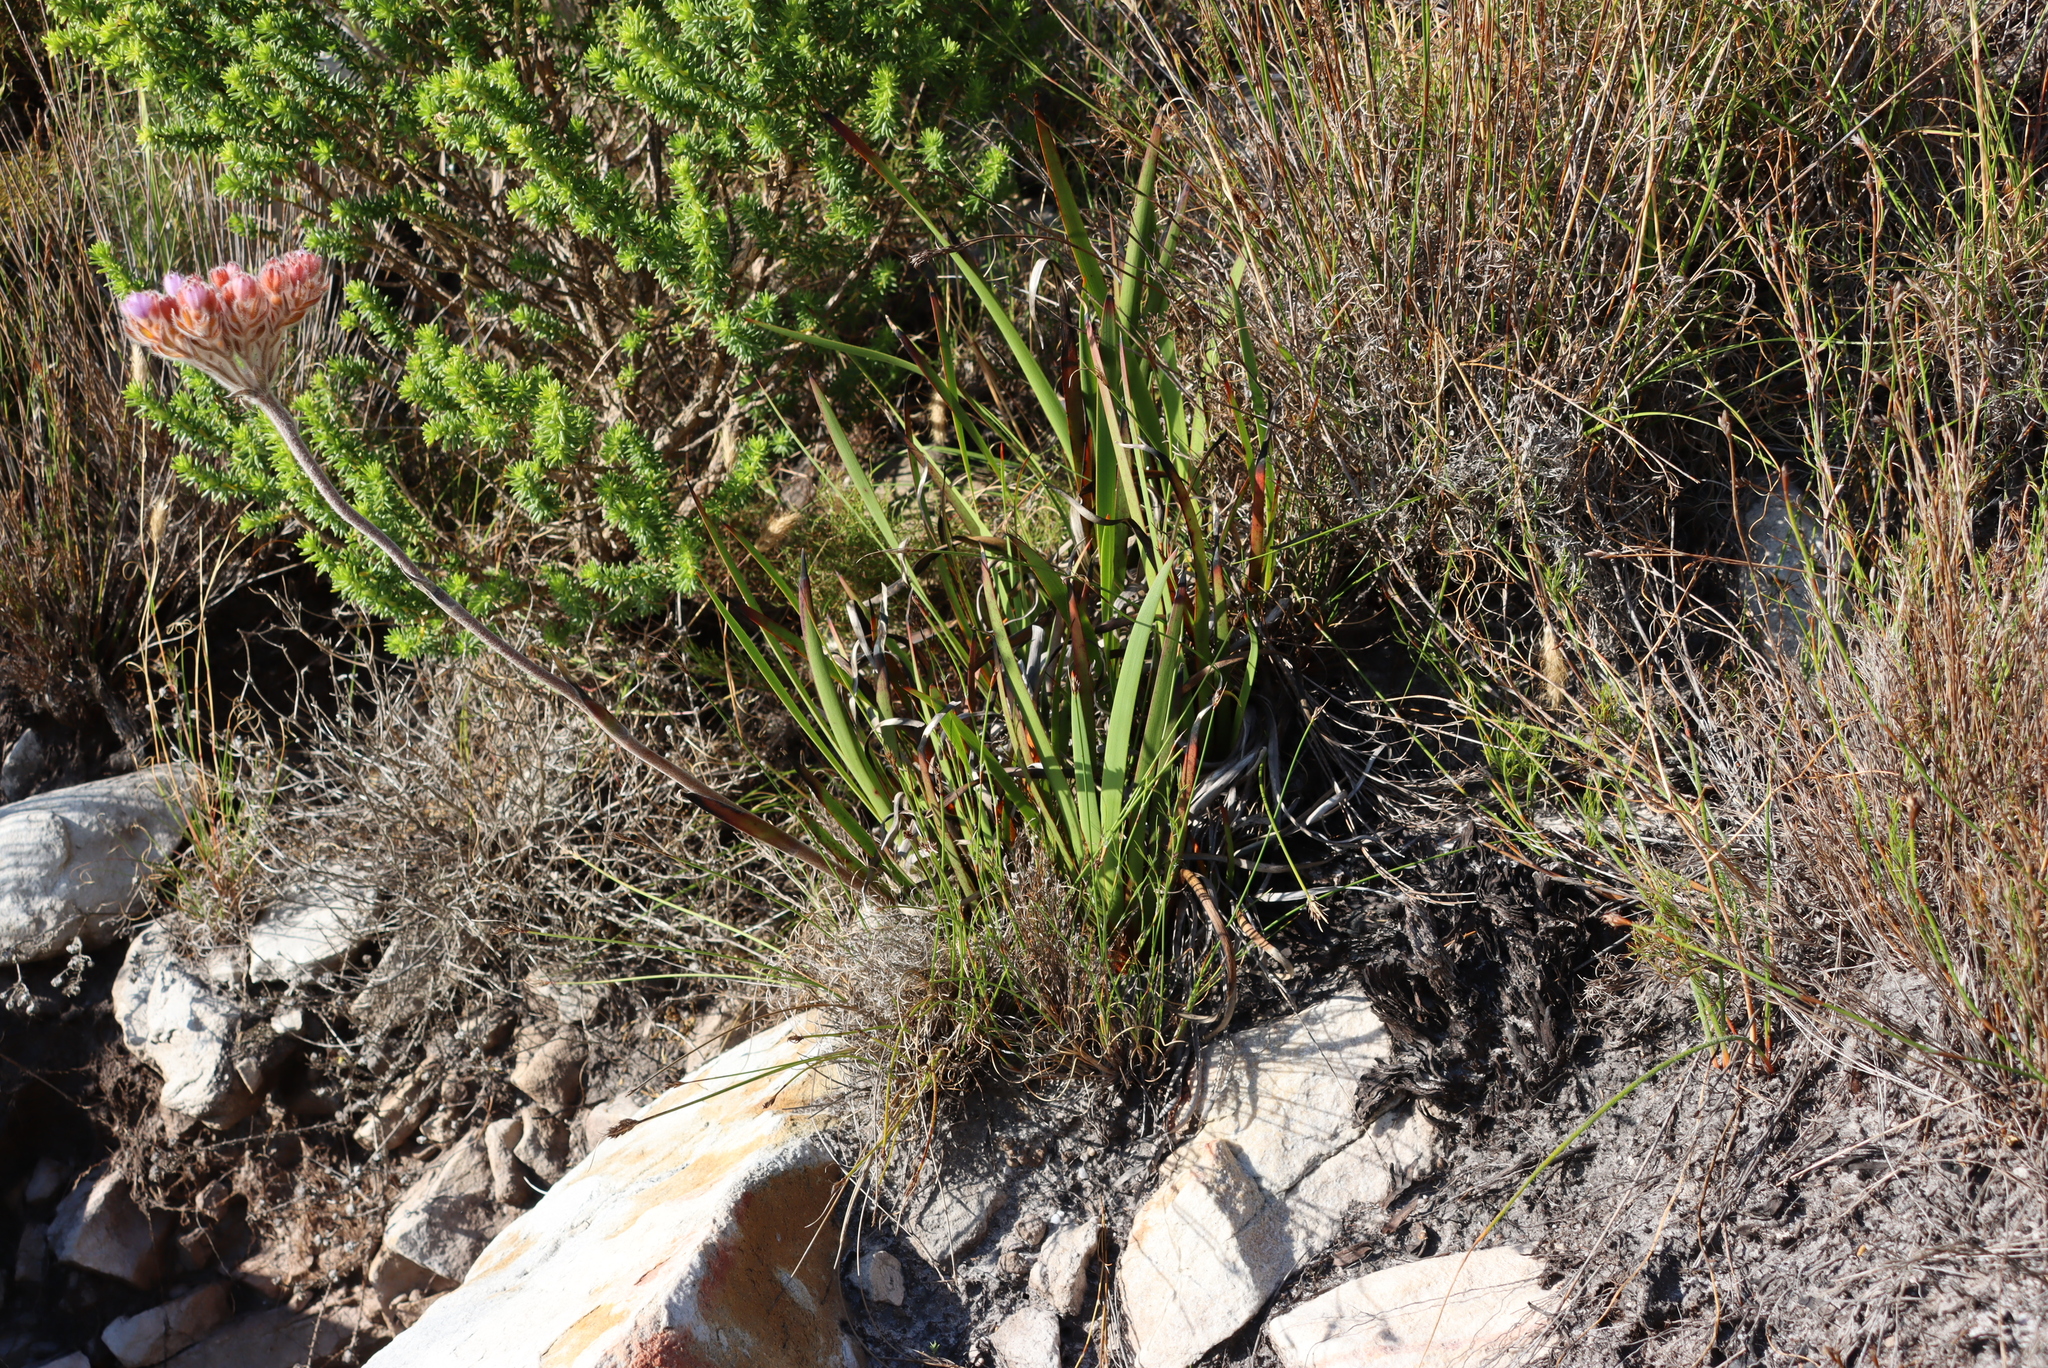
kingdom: Plantae
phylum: Tracheophyta
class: Liliopsida
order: Commelinales
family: Haemodoraceae
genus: Dilatris
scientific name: Dilatris pillansii
